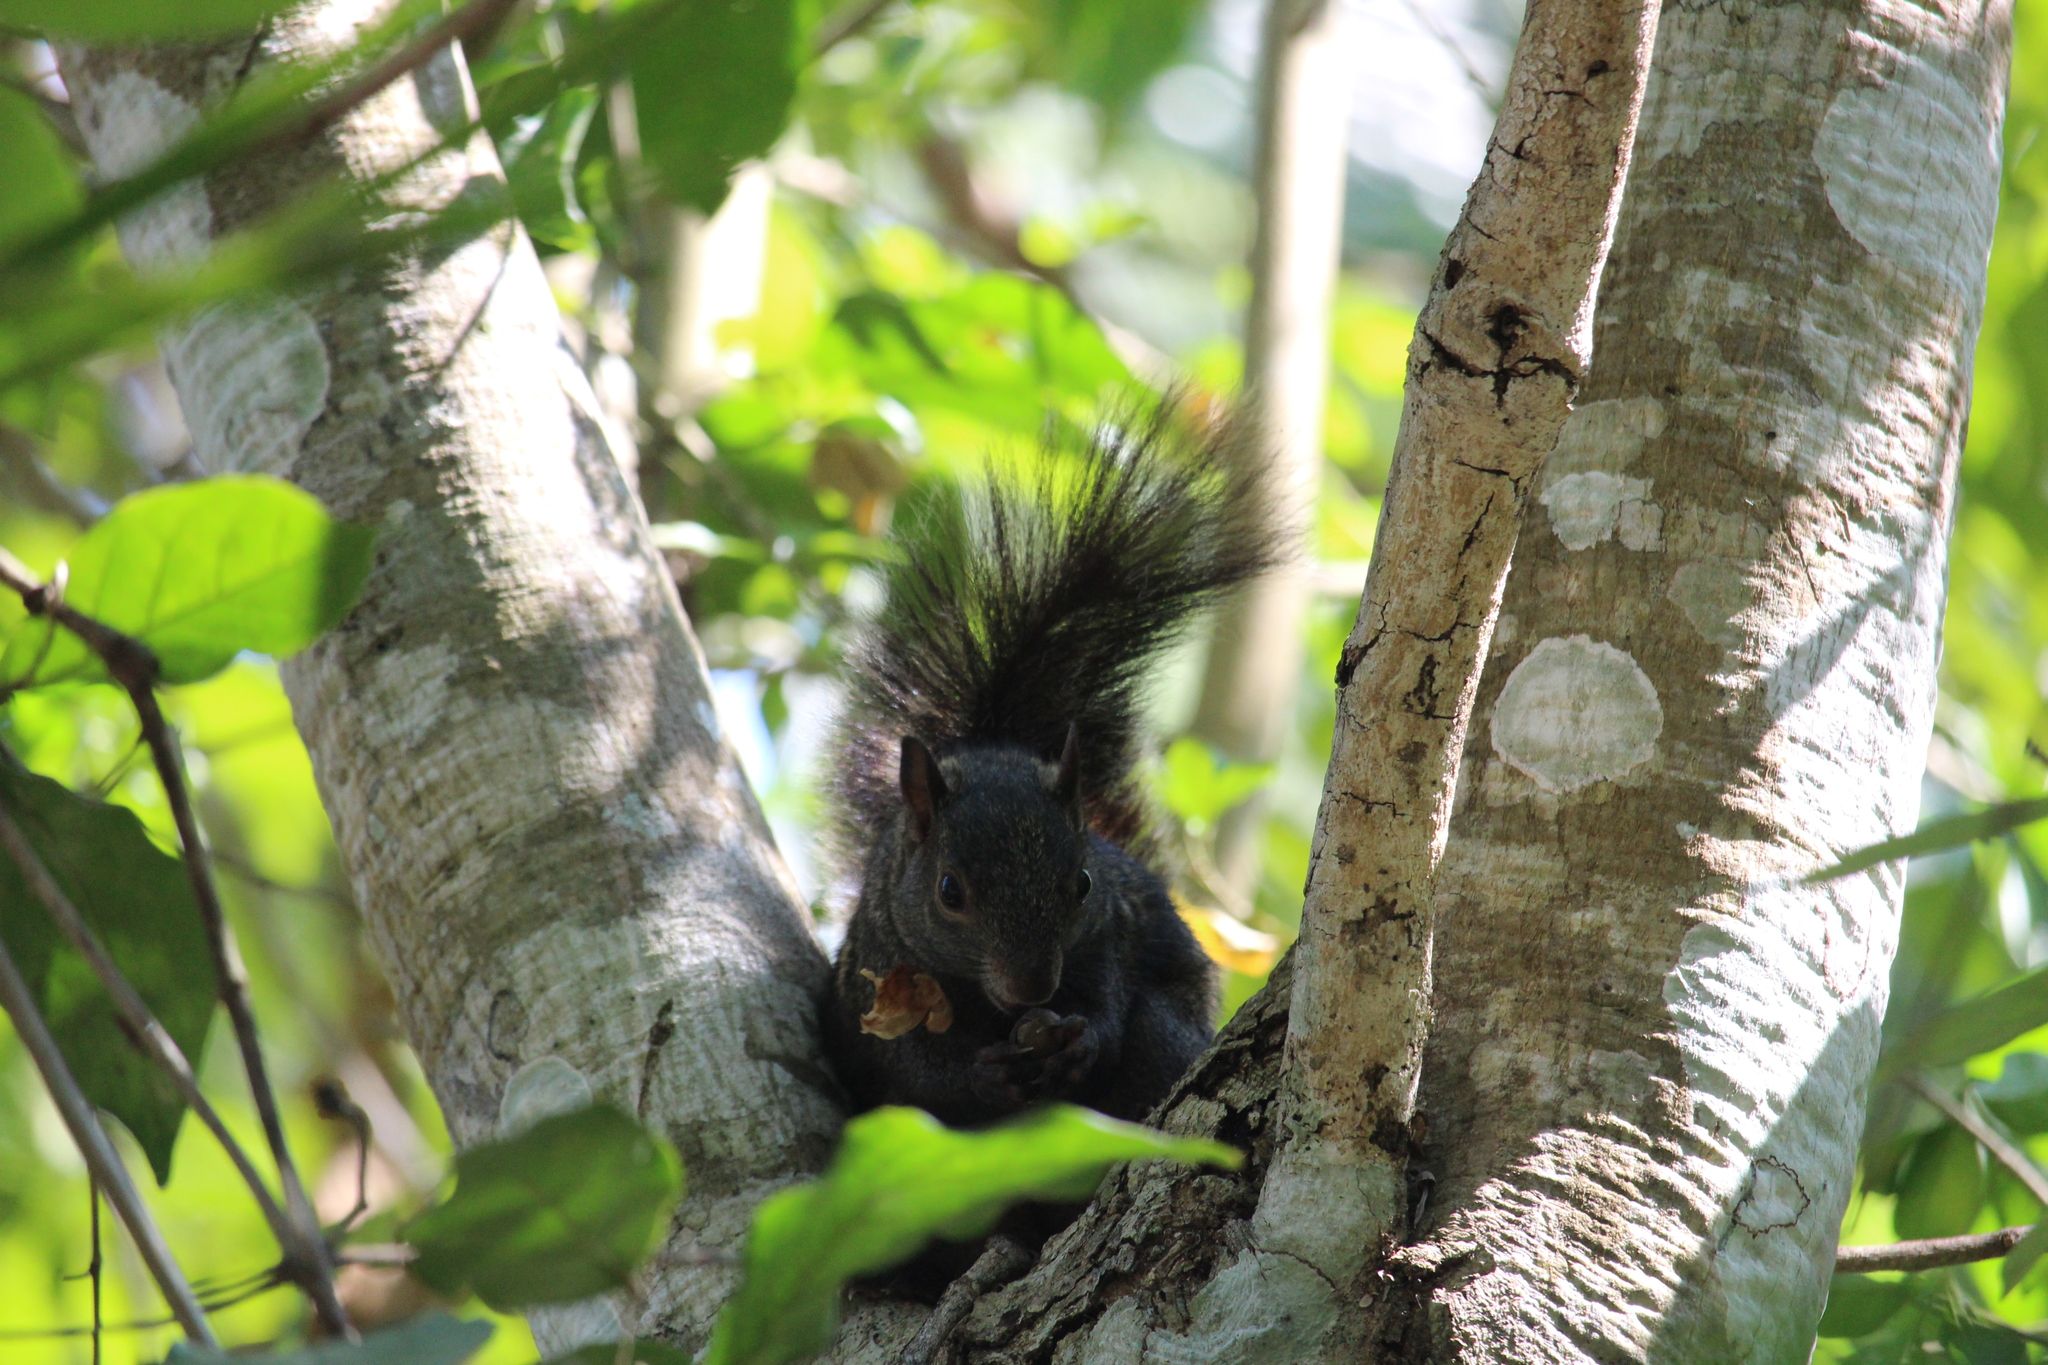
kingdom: Animalia
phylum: Chordata
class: Mammalia
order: Rodentia
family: Sciuridae
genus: Sciurus
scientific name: Sciurus yucatanensis
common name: Yucatan squirrel
